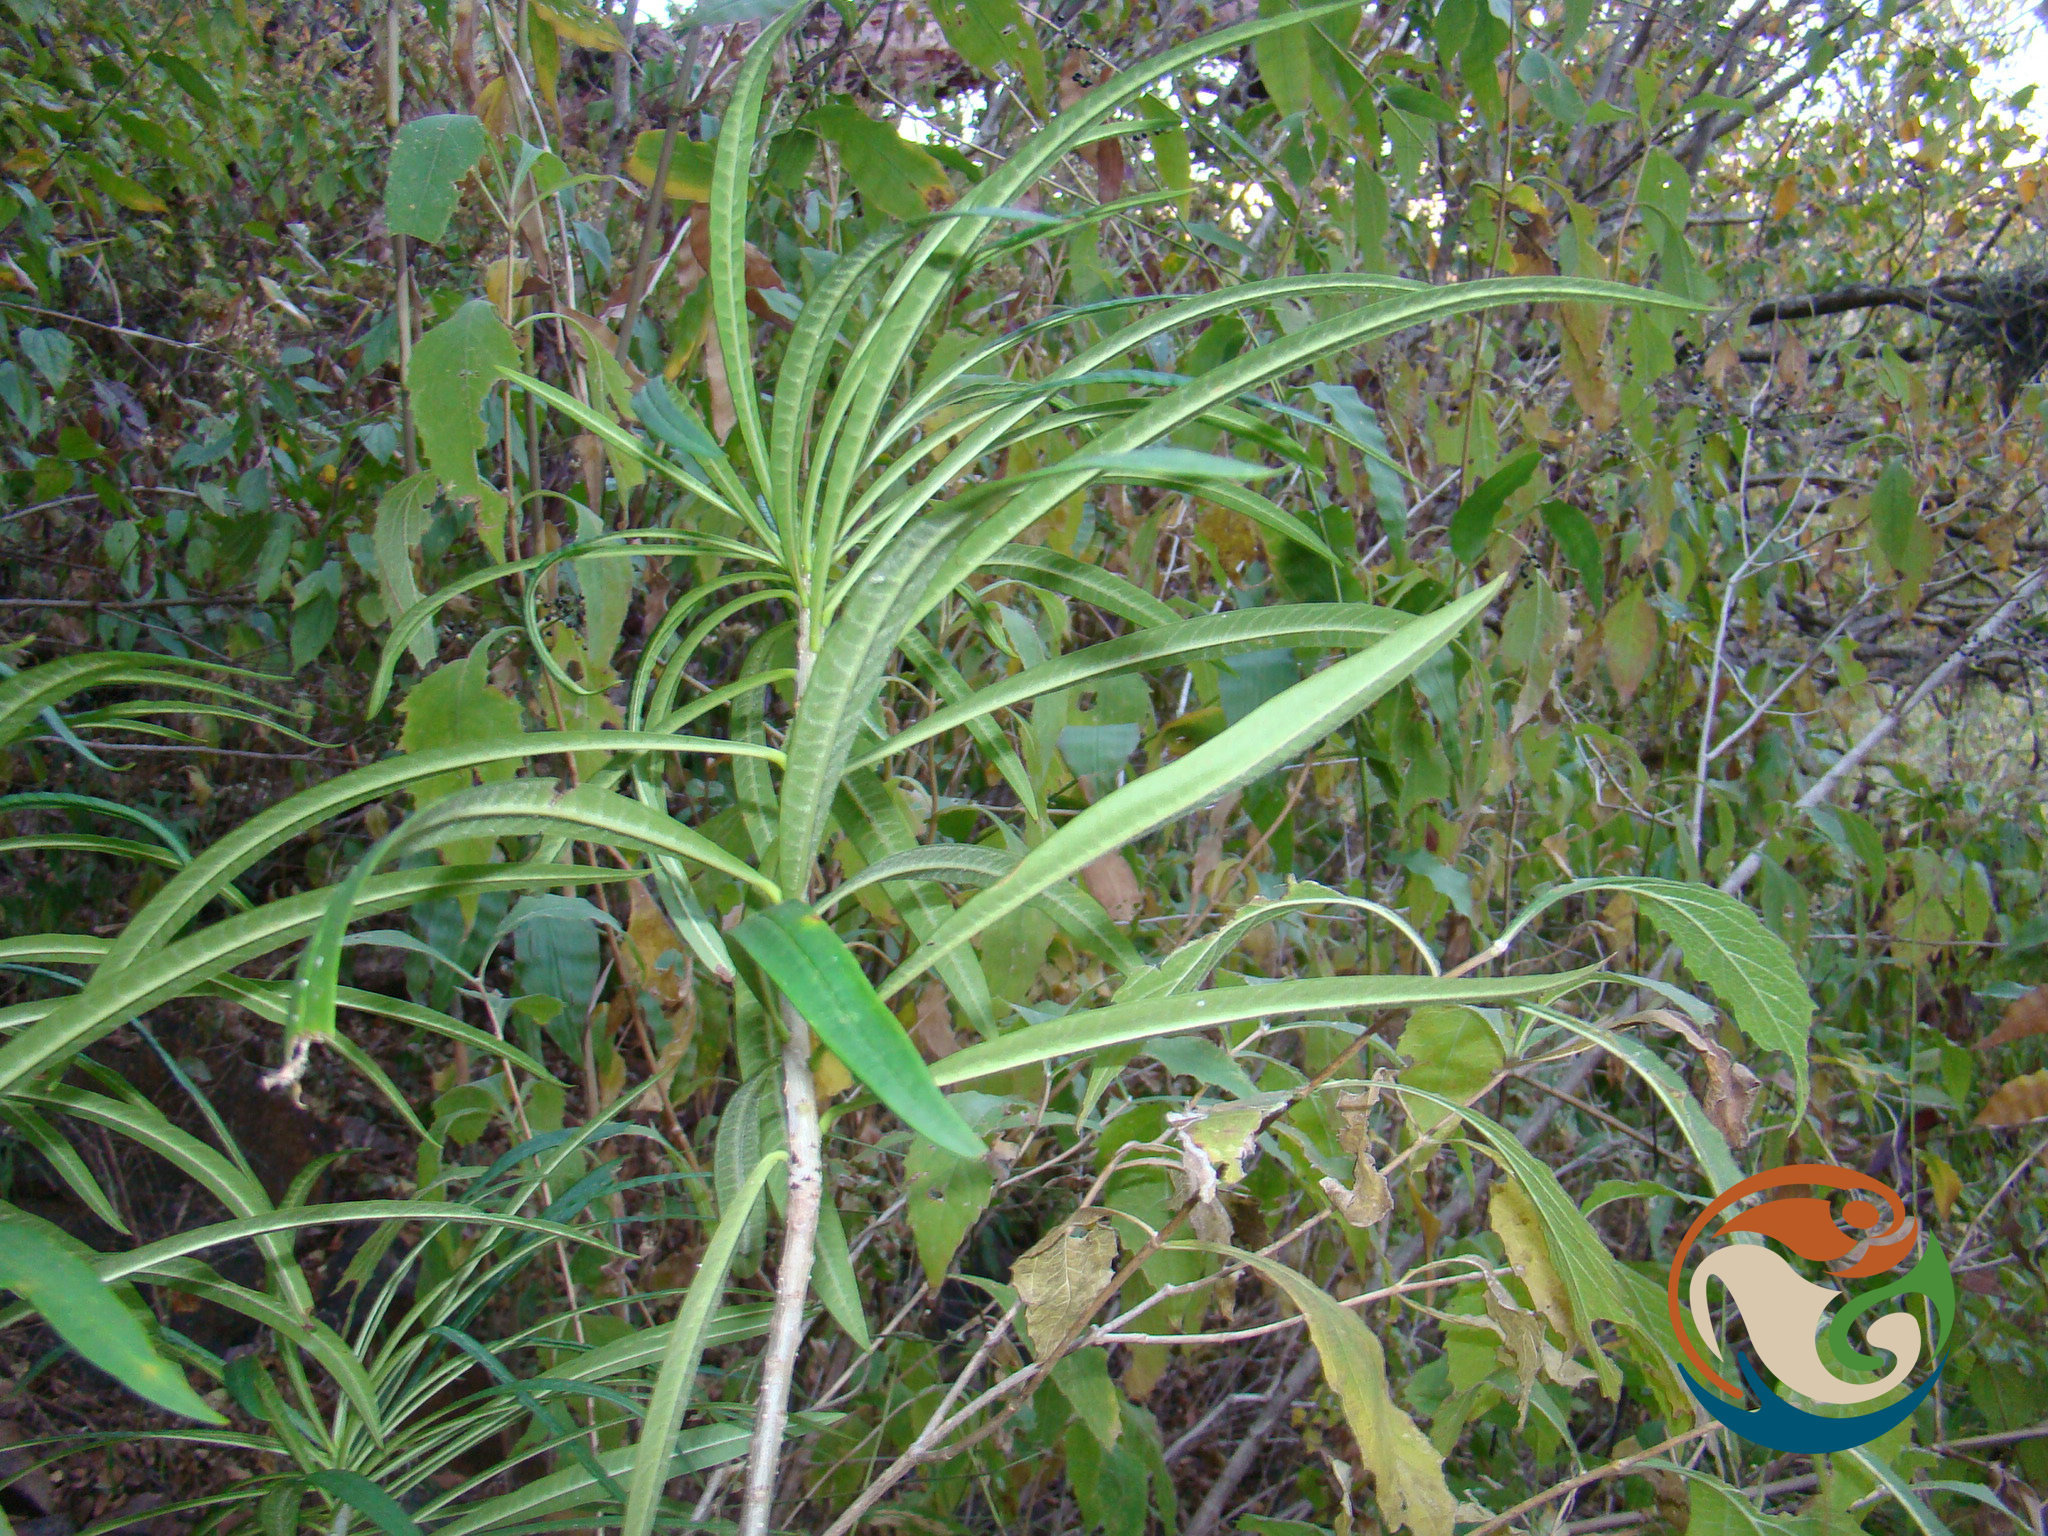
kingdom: Plantae
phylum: Tracheophyta
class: Magnoliopsida
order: Gentianales
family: Apocynaceae
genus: Cascabela
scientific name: Cascabela thevetioides
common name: Yellow oleander
